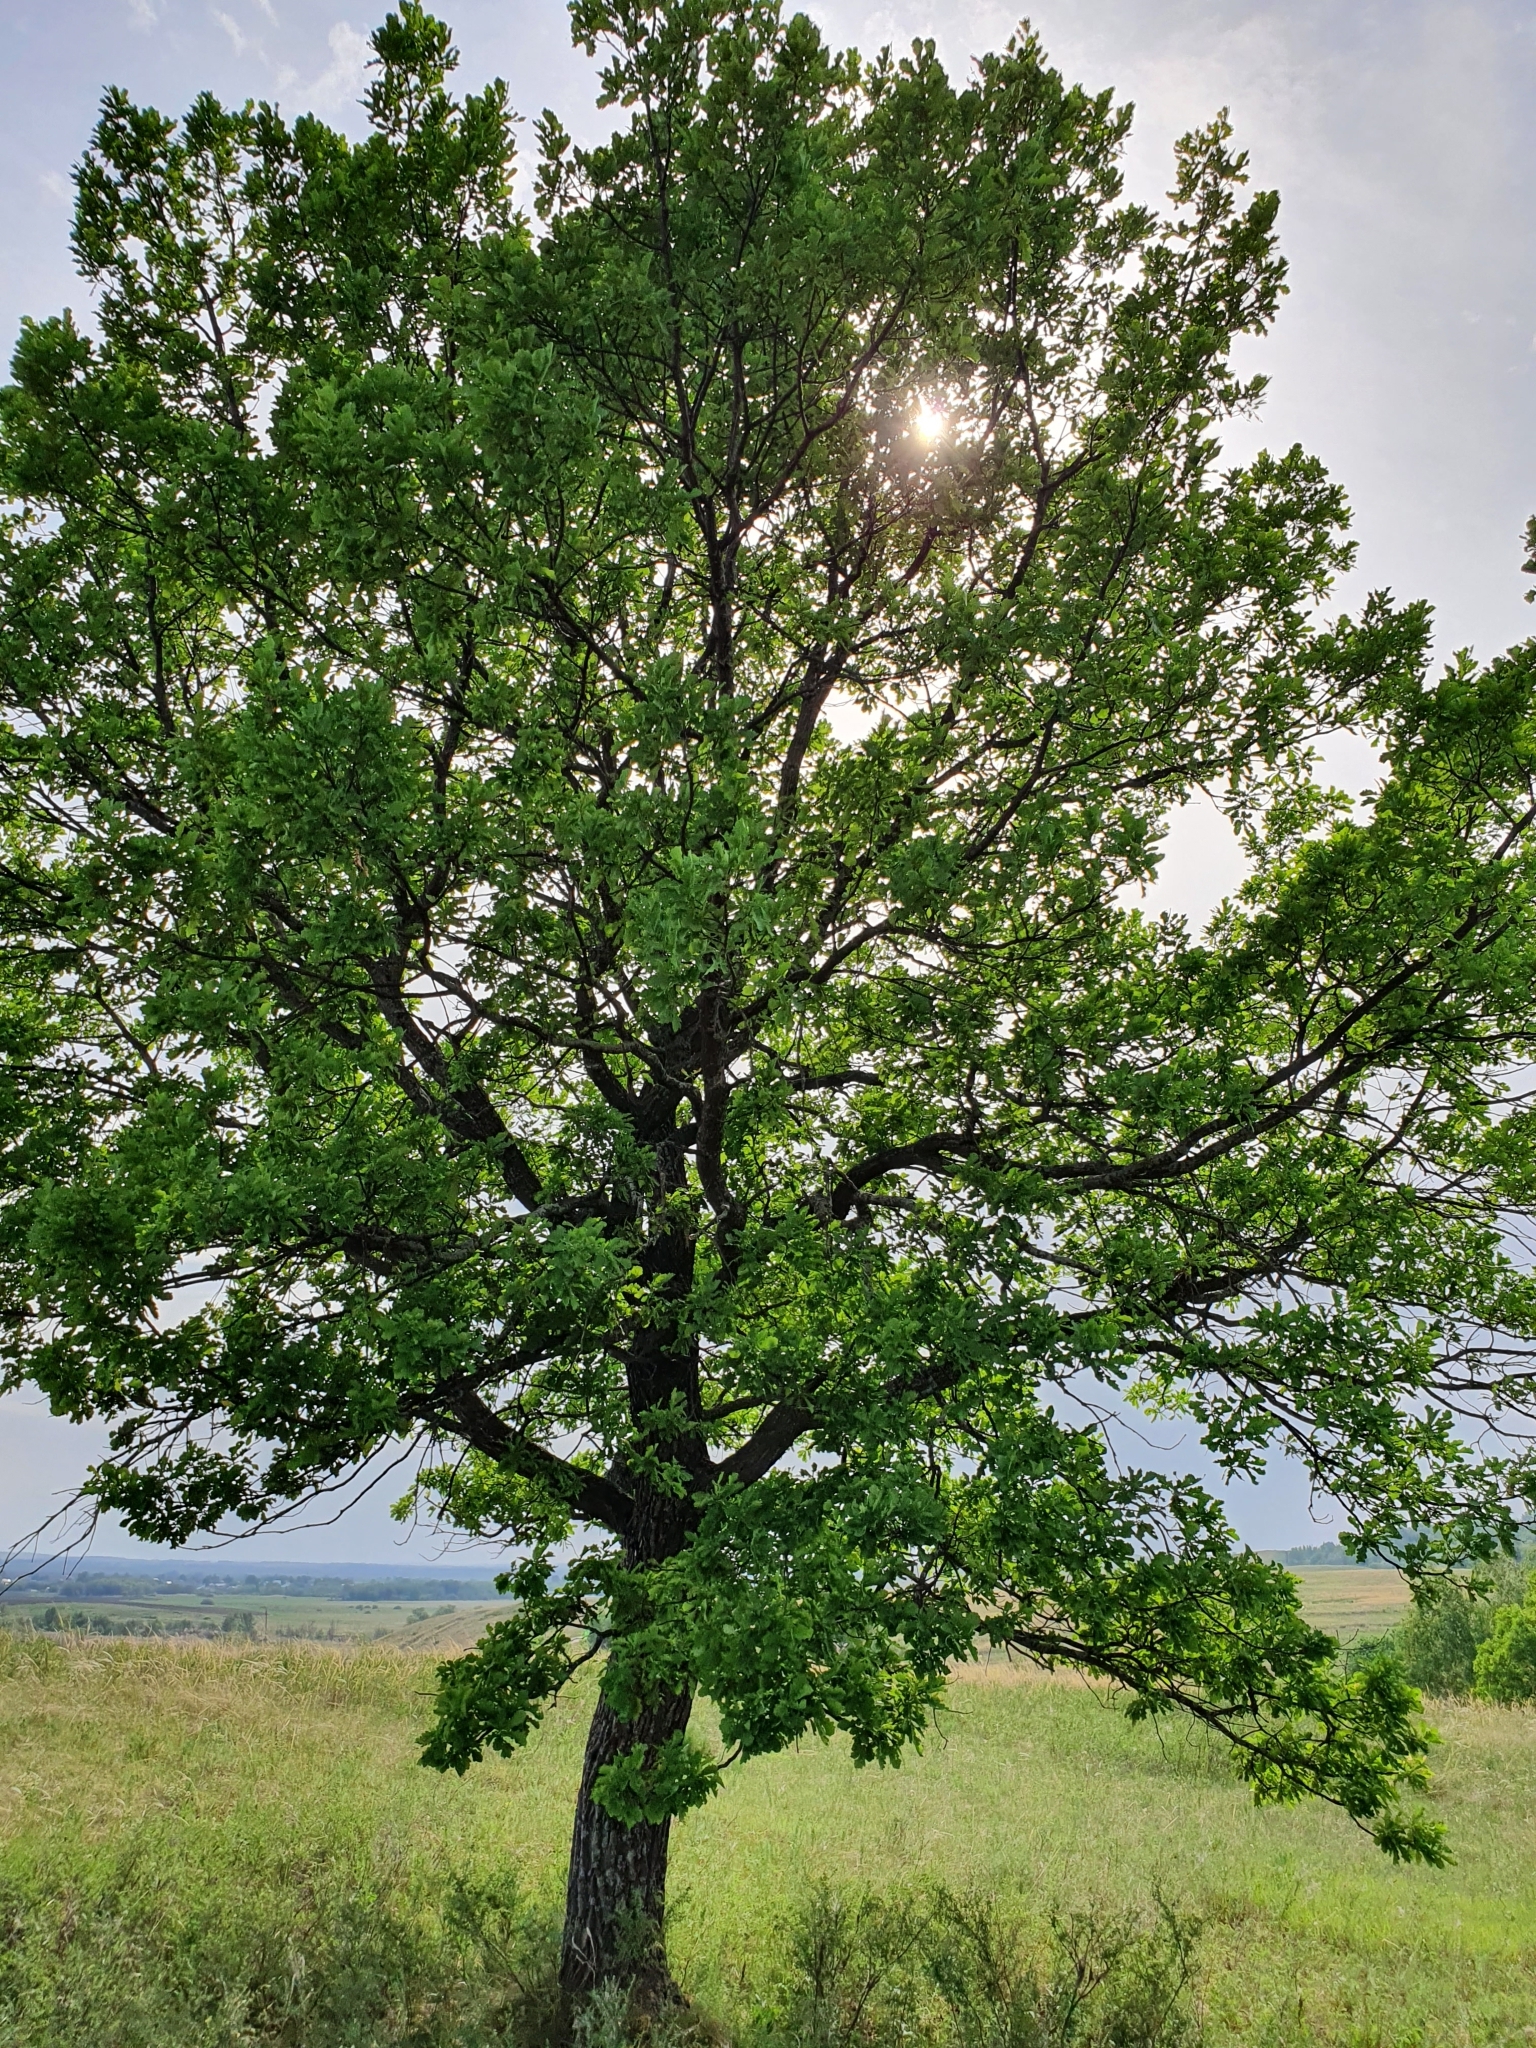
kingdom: Plantae
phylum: Tracheophyta
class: Magnoliopsida
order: Fagales
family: Fagaceae
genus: Quercus
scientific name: Quercus robur
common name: Pedunculate oak
